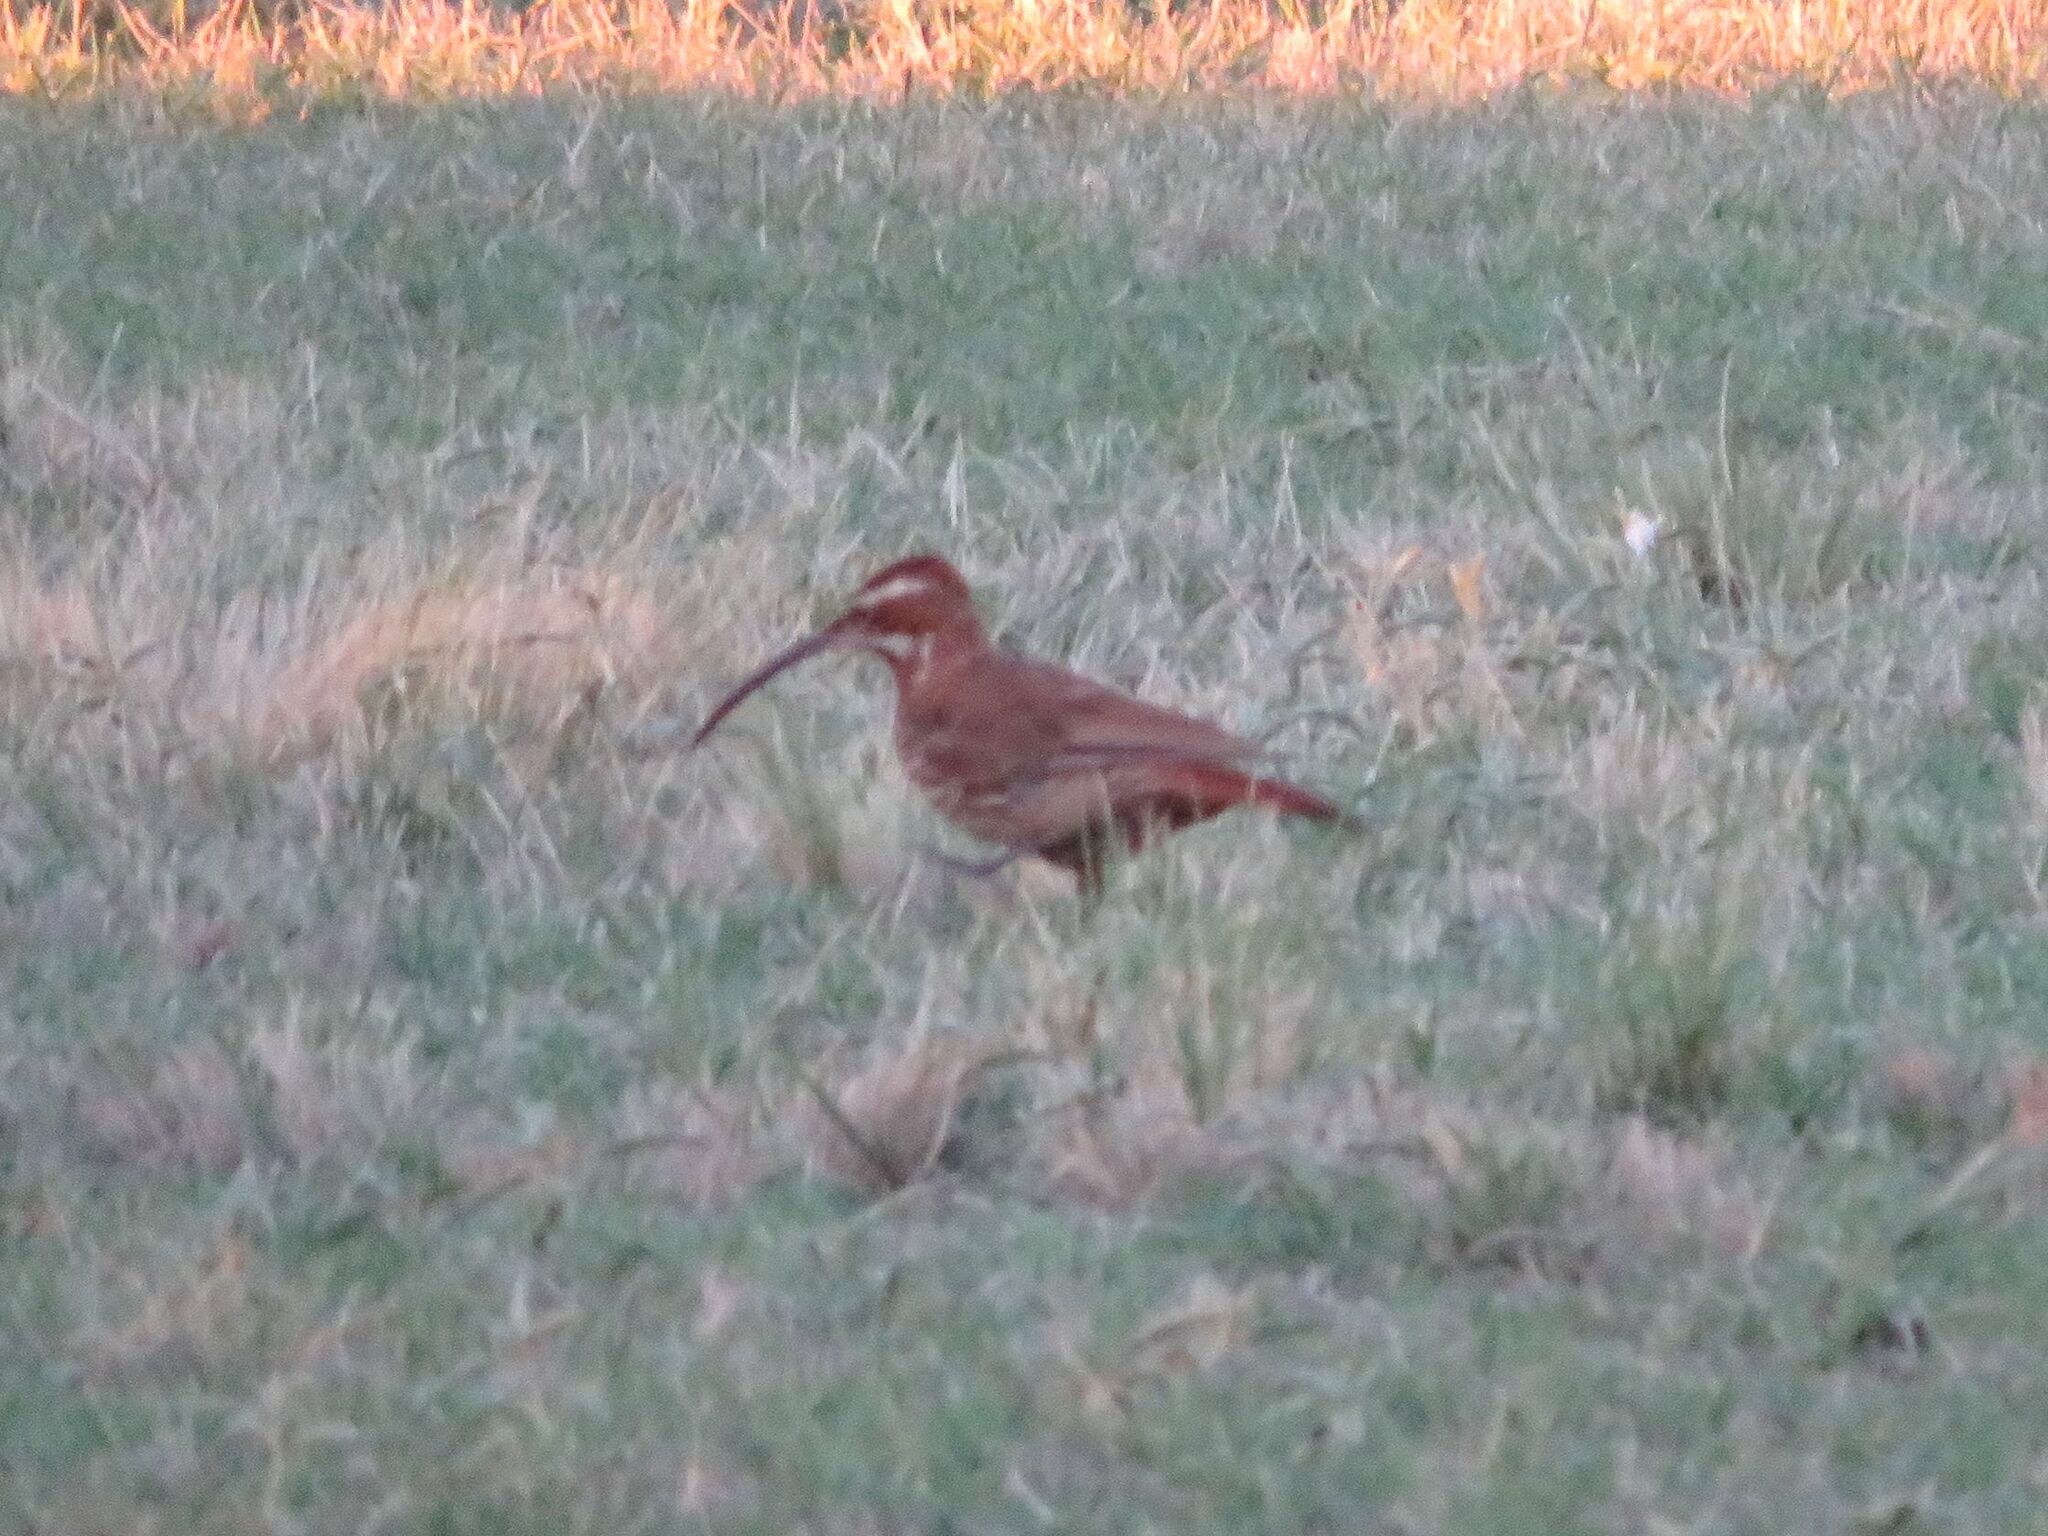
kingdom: Animalia
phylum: Chordata
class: Aves
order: Passeriformes
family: Furnariidae
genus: Drymornis
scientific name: Drymornis bridgesii
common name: Scimitar-billed woodcreeper
